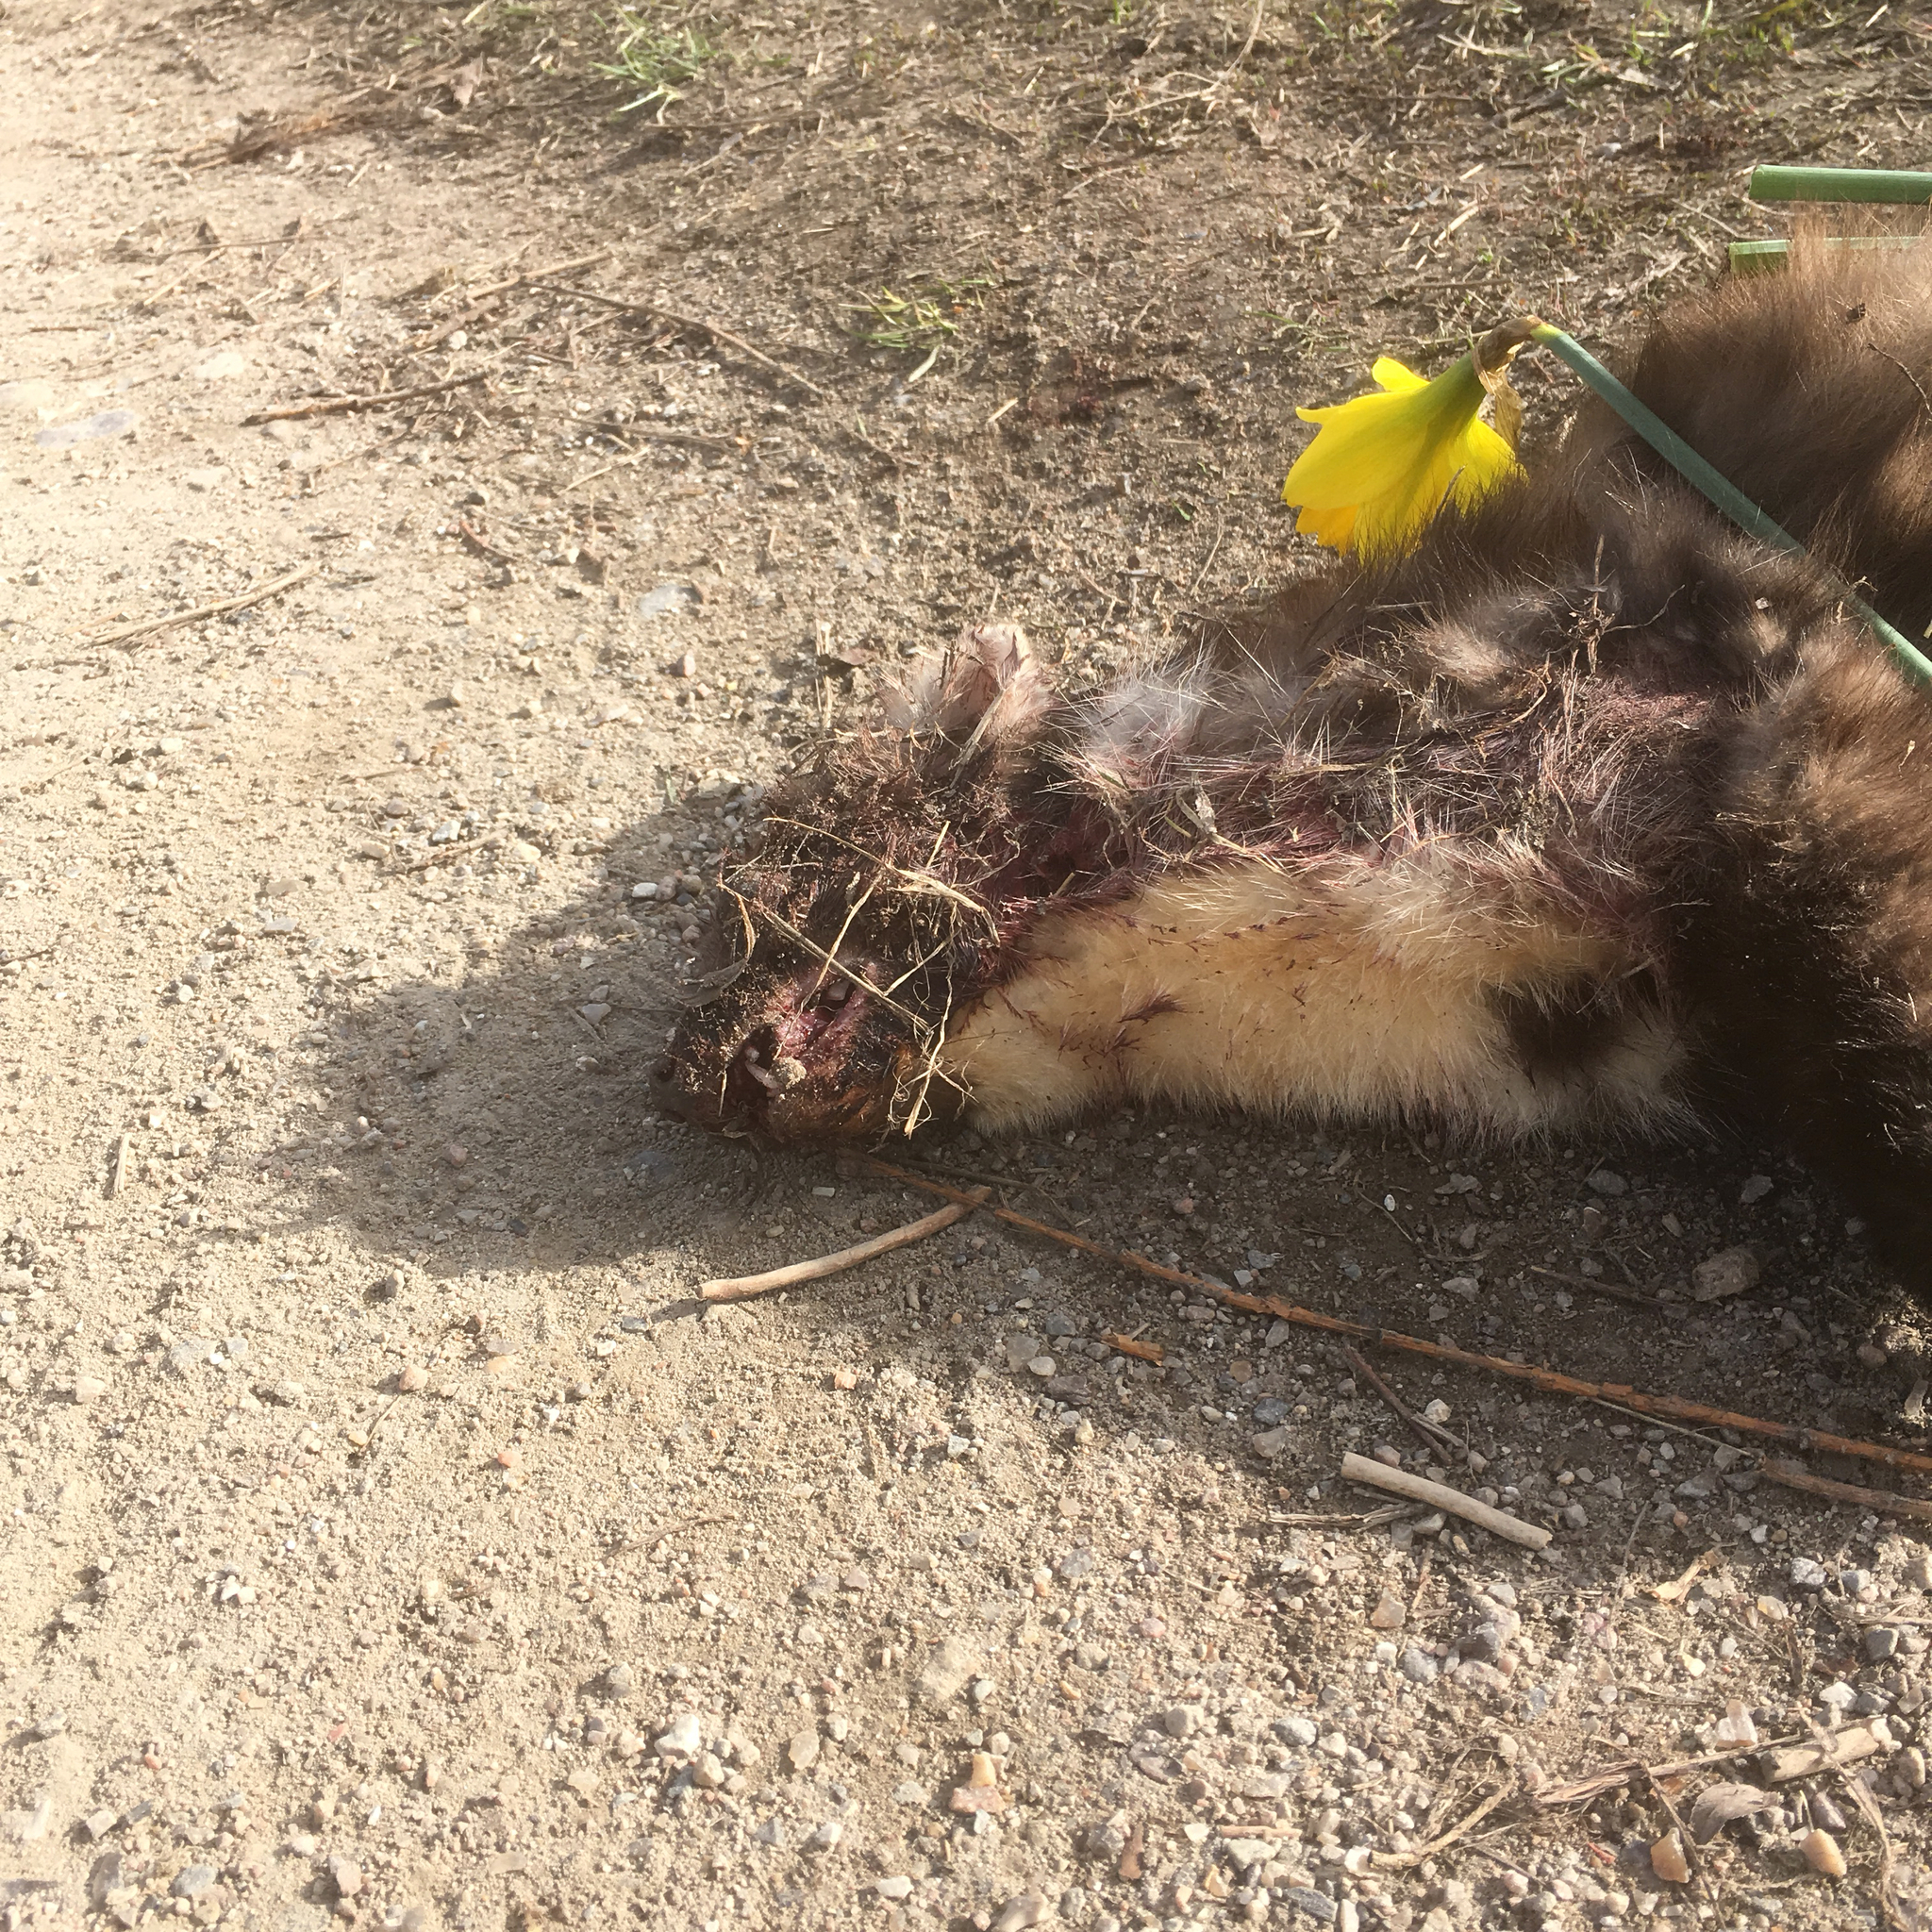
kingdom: Animalia
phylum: Chordata
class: Mammalia
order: Carnivora
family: Mustelidae
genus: Martes
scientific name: Martes martes
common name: European pine marten
